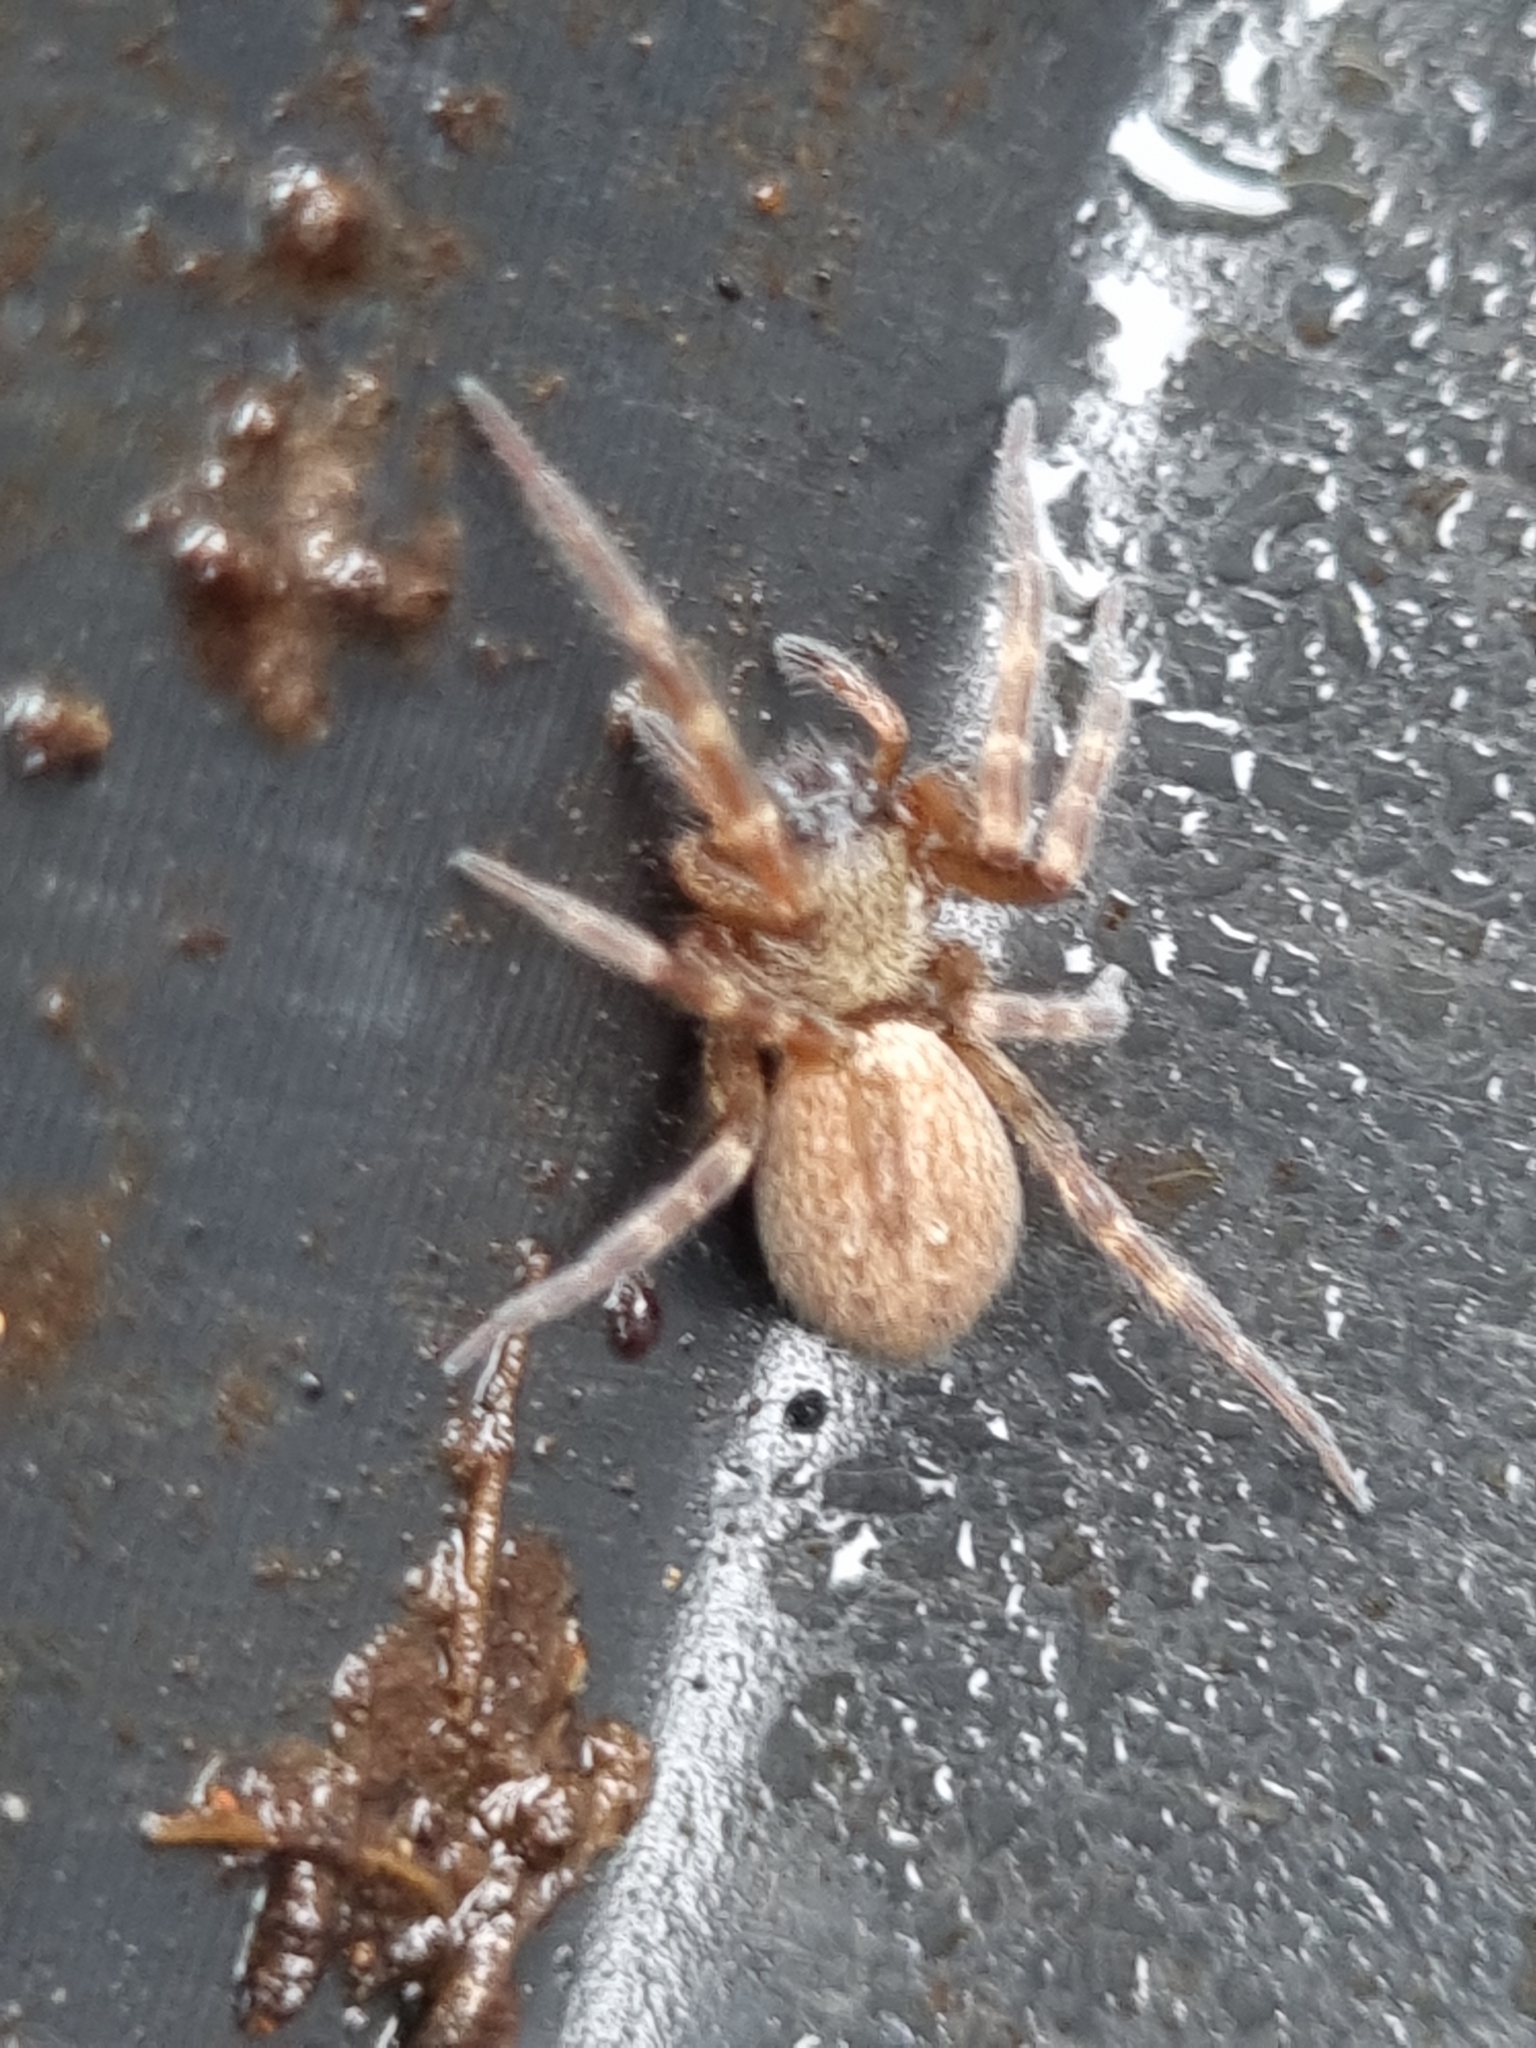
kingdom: Animalia
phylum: Arthropoda
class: Arachnida
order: Araneae
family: Desidae
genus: Badumna
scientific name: Badumna longinqua
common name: Gray house spider
